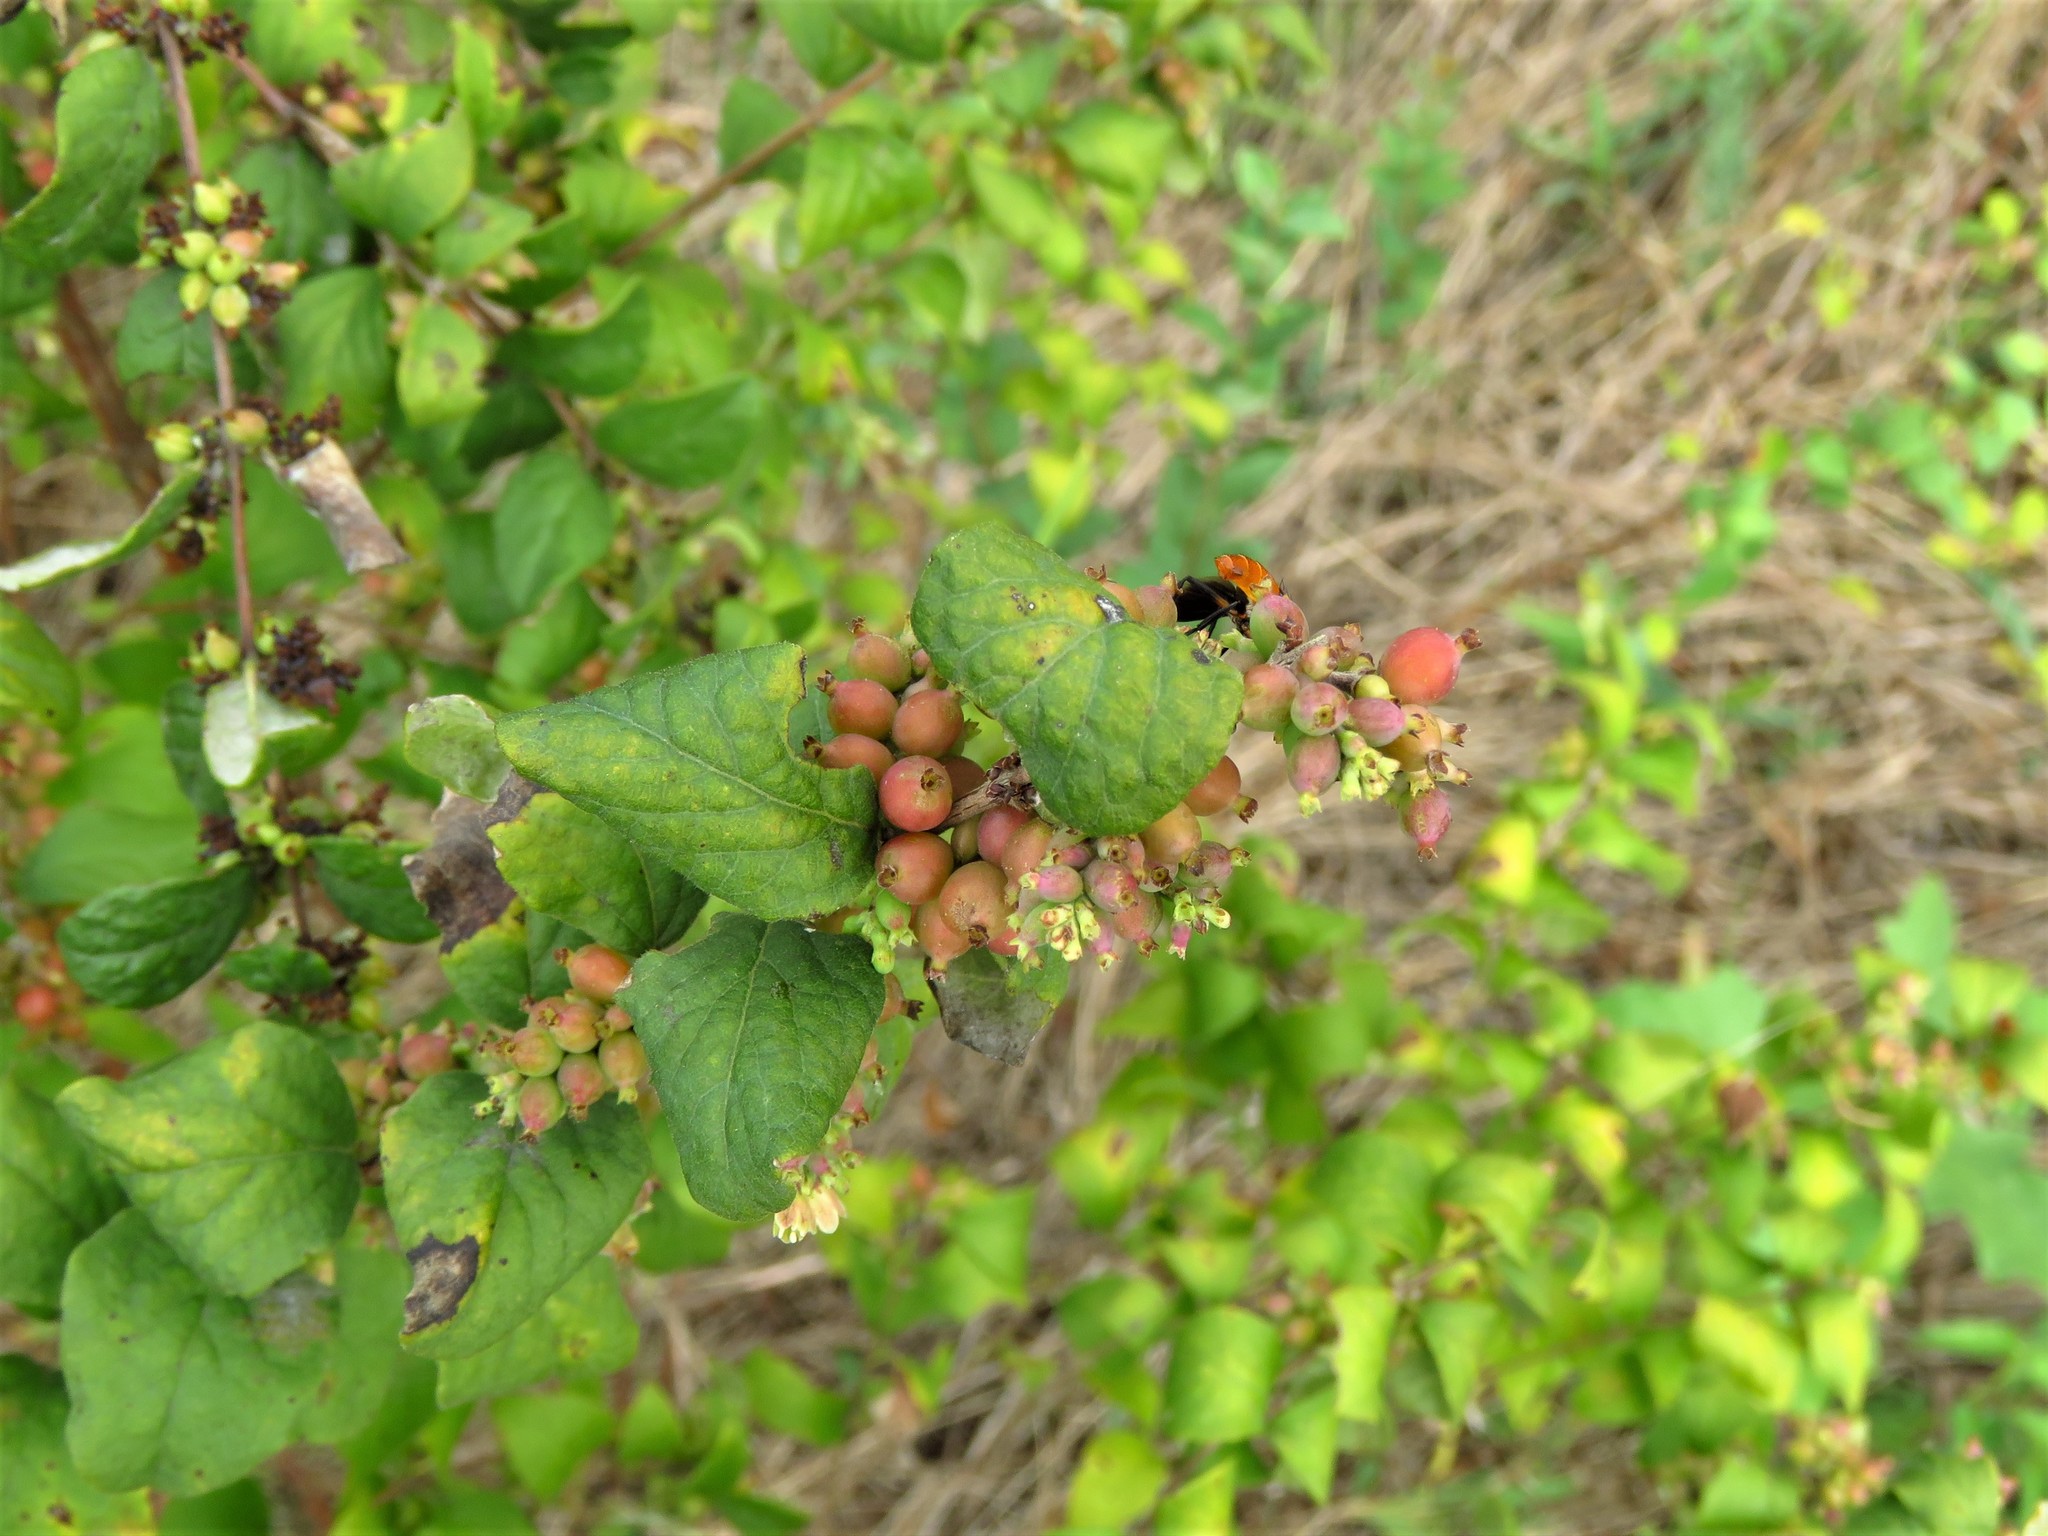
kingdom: Plantae
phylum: Tracheophyta
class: Magnoliopsida
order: Dipsacales
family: Caprifoliaceae
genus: Symphoricarpos
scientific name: Symphoricarpos orbiculatus
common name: Coralberry
